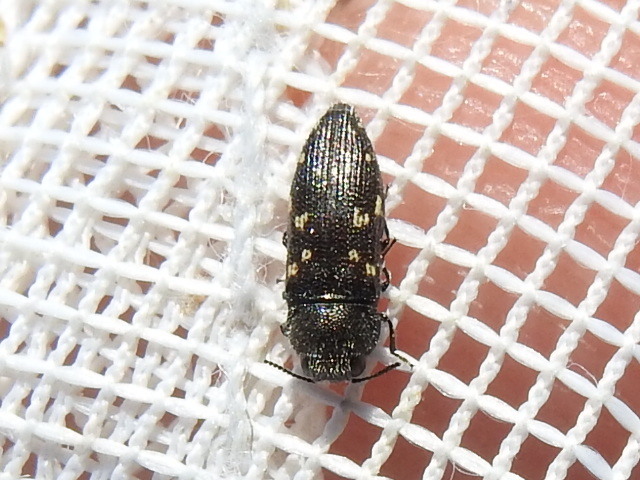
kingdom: Animalia
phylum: Arthropoda
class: Insecta
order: Coleoptera
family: Buprestidae
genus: Acmaeodera
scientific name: Acmaeodera tubulus
